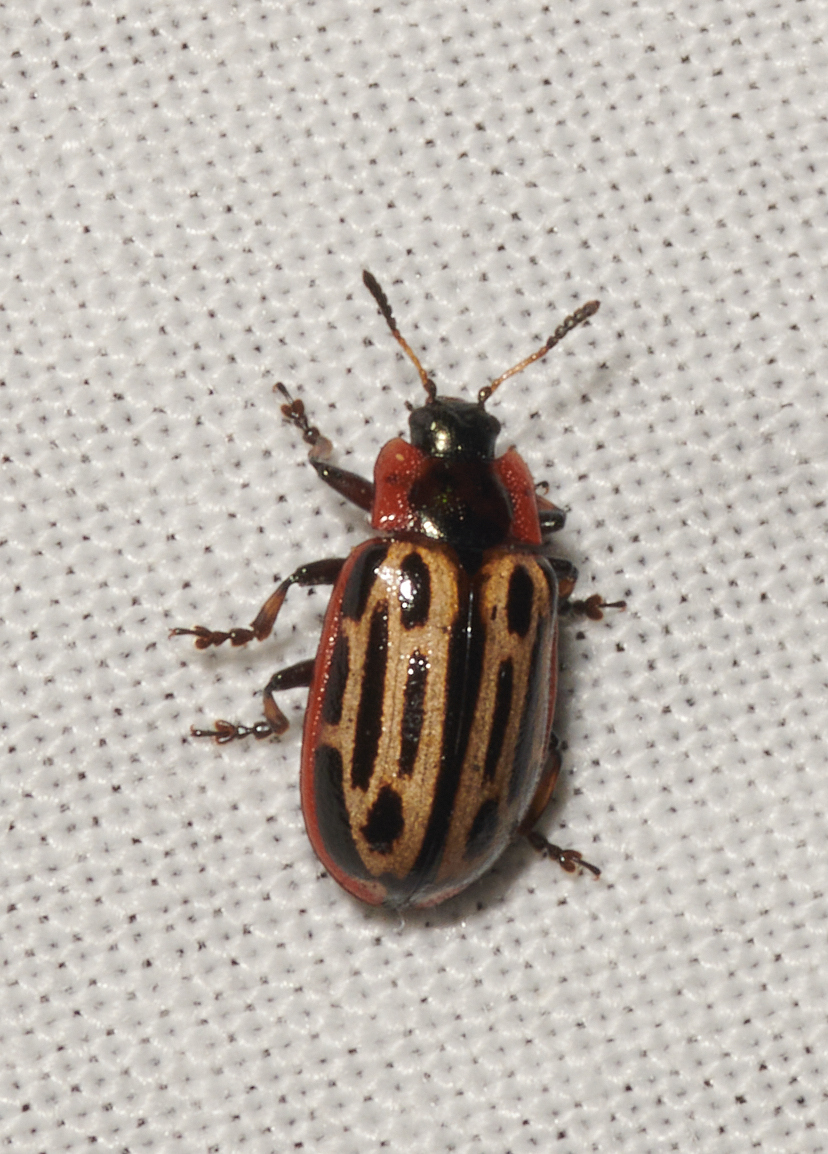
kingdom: Animalia
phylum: Arthropoda
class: Insecta
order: Coleoptera
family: Chrysomelidae
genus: Aethiopocassis
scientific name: Aethiopocassis scripta
